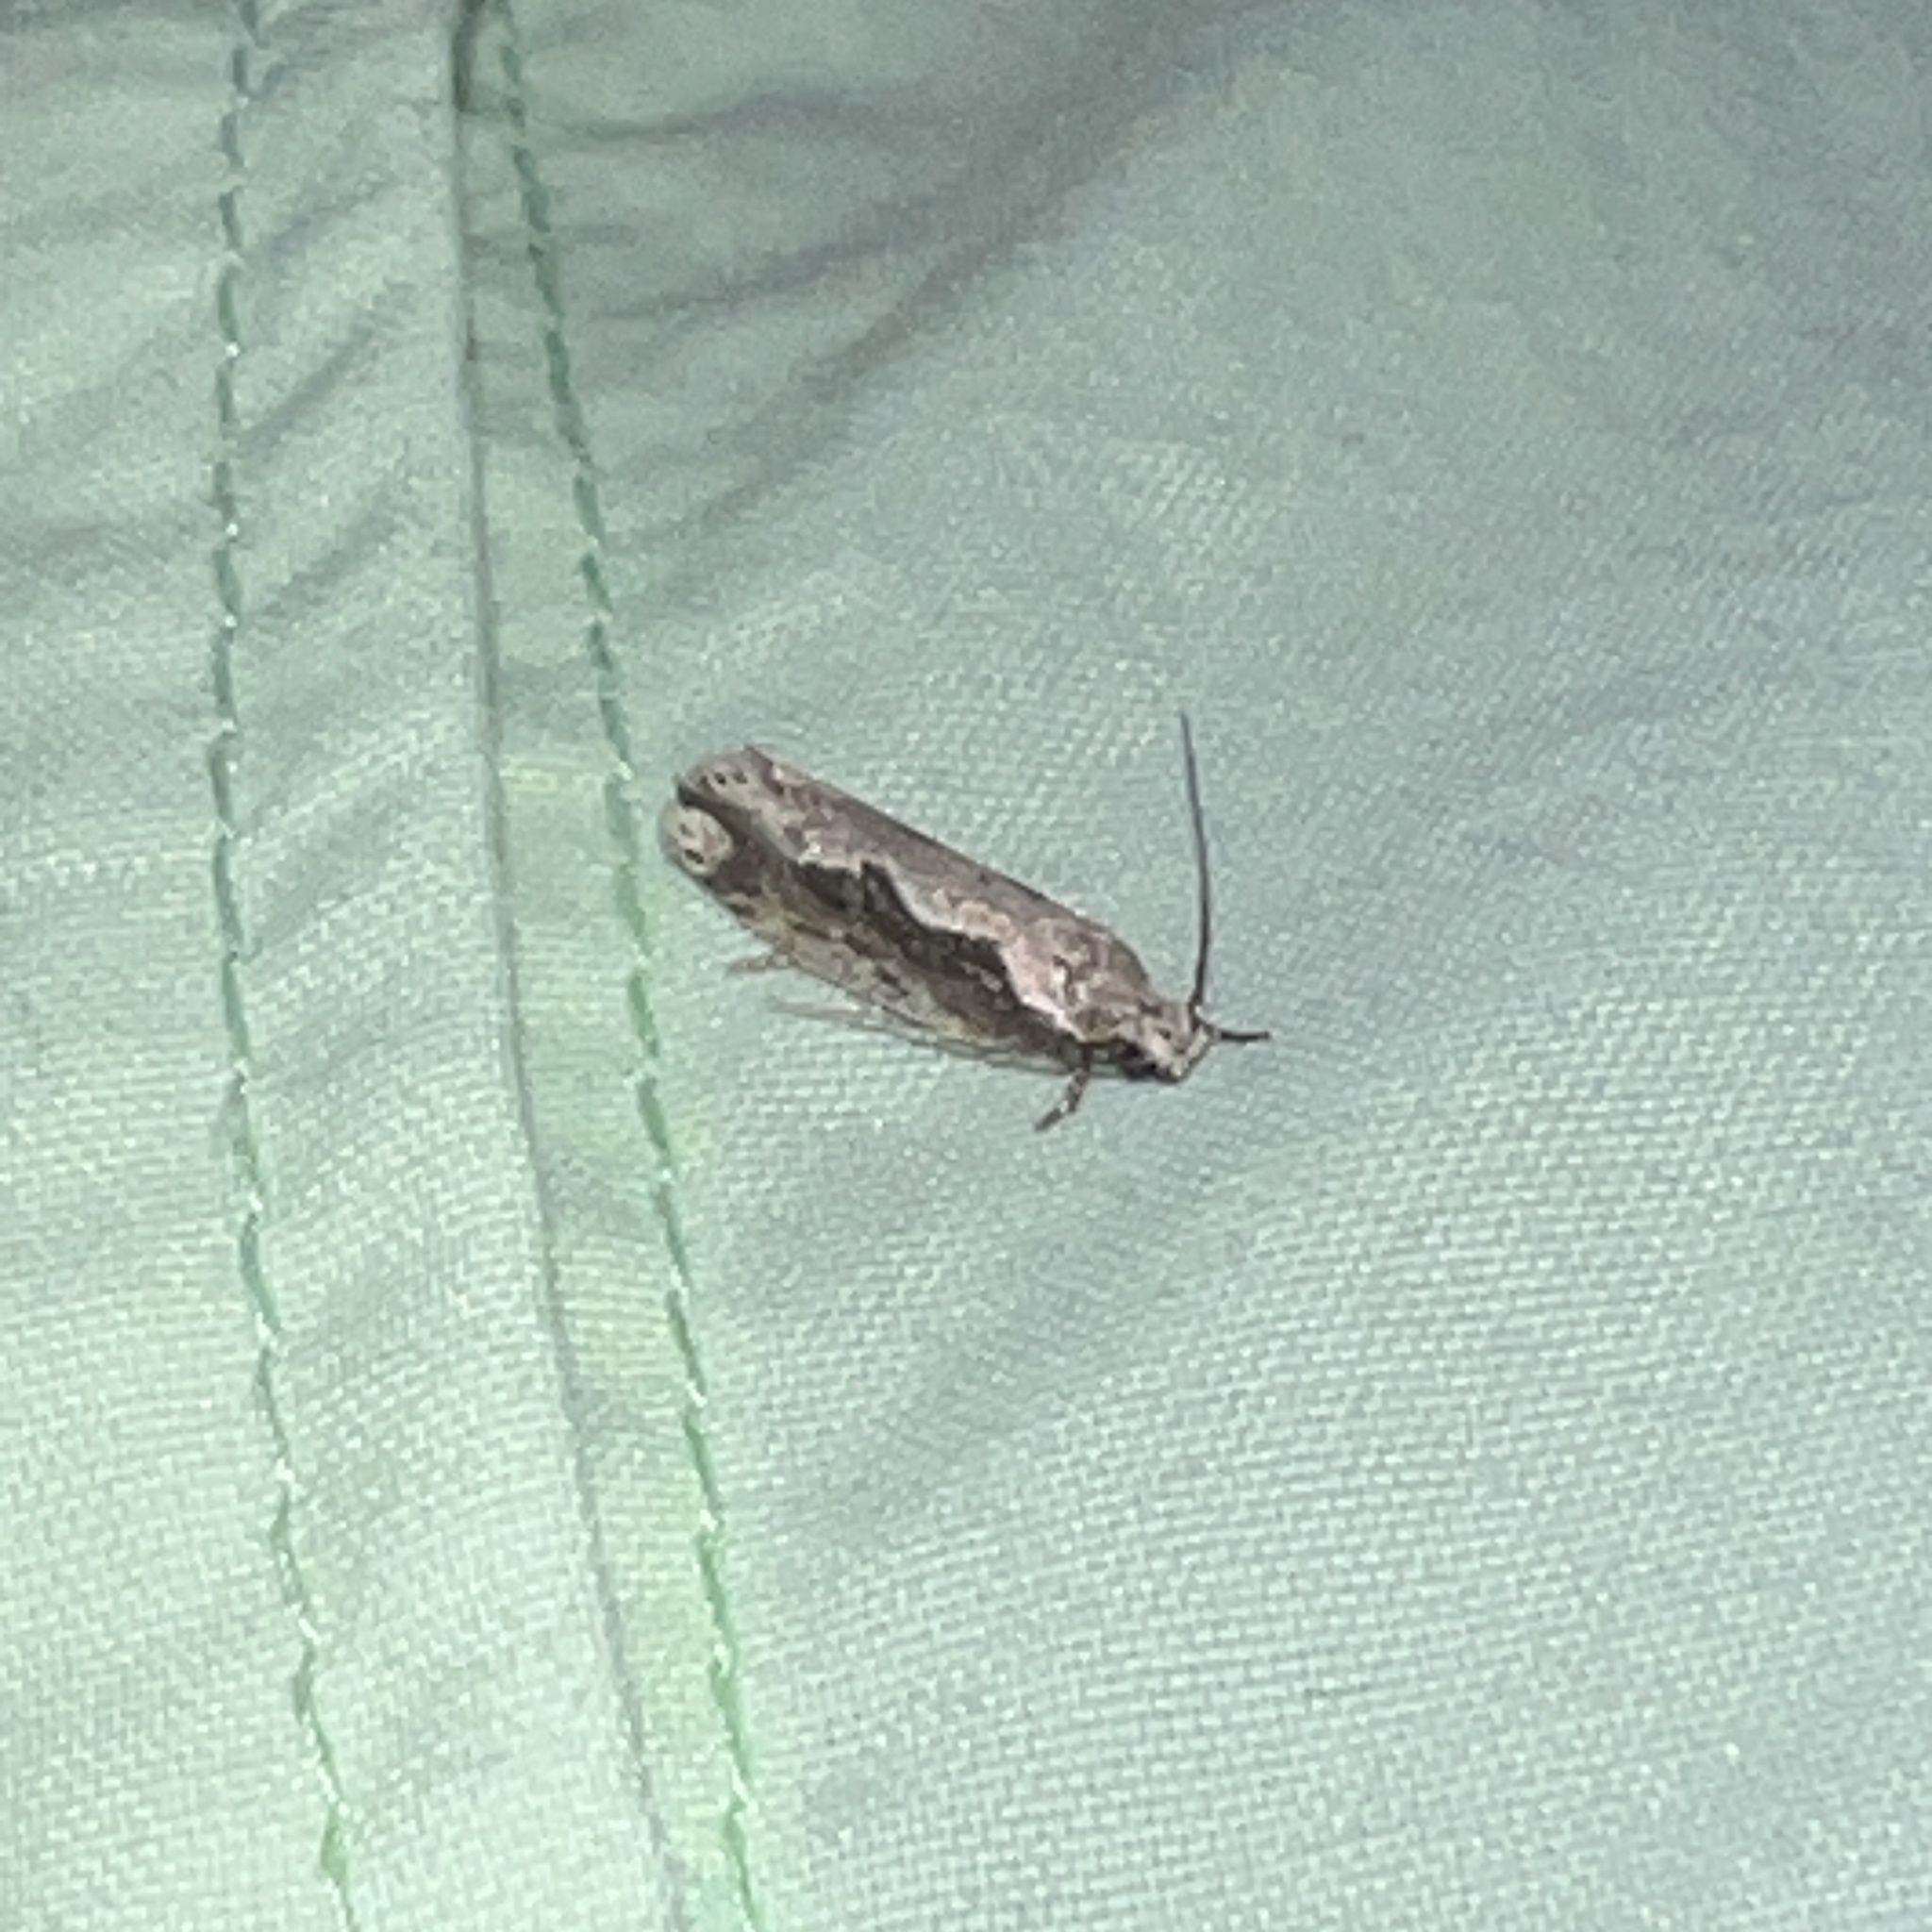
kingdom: Animalia
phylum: Arthropoda
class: Insecta
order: Lepidoptera
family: Ethmiidae
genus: Ethmia
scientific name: Ethmia semiombra
